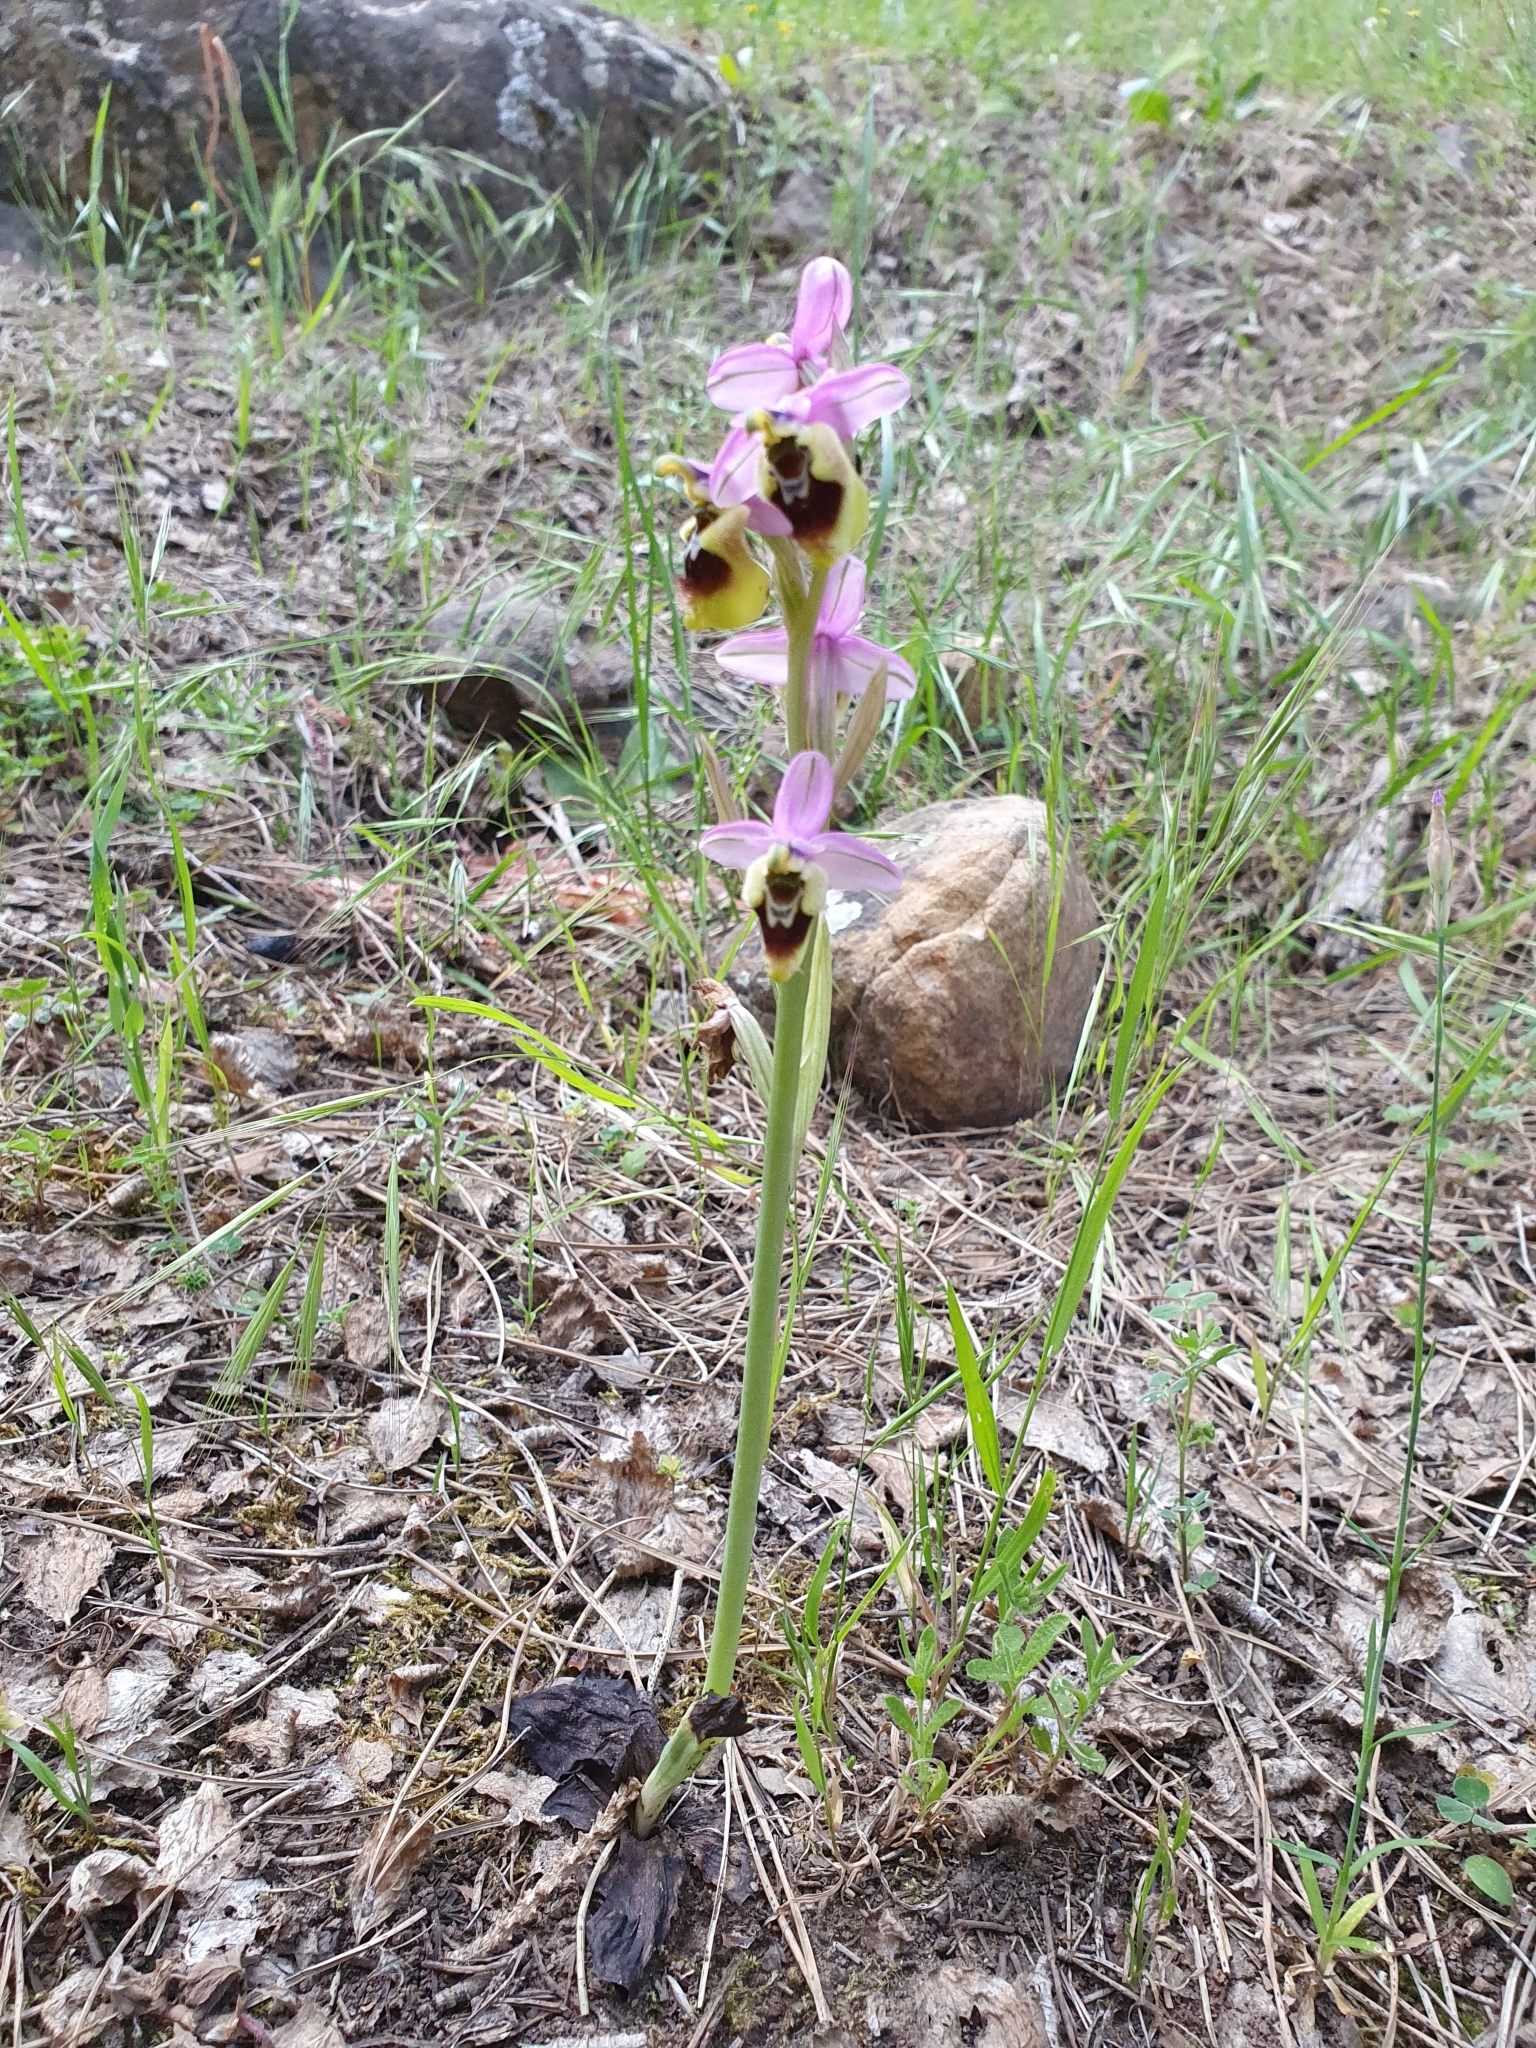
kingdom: Plantae
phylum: Tracheophyta
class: Liliopsida
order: Asparagales
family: Orchidaceae
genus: Ophrys
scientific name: Ophrys tenthredinifera
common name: Sawfly orchid
